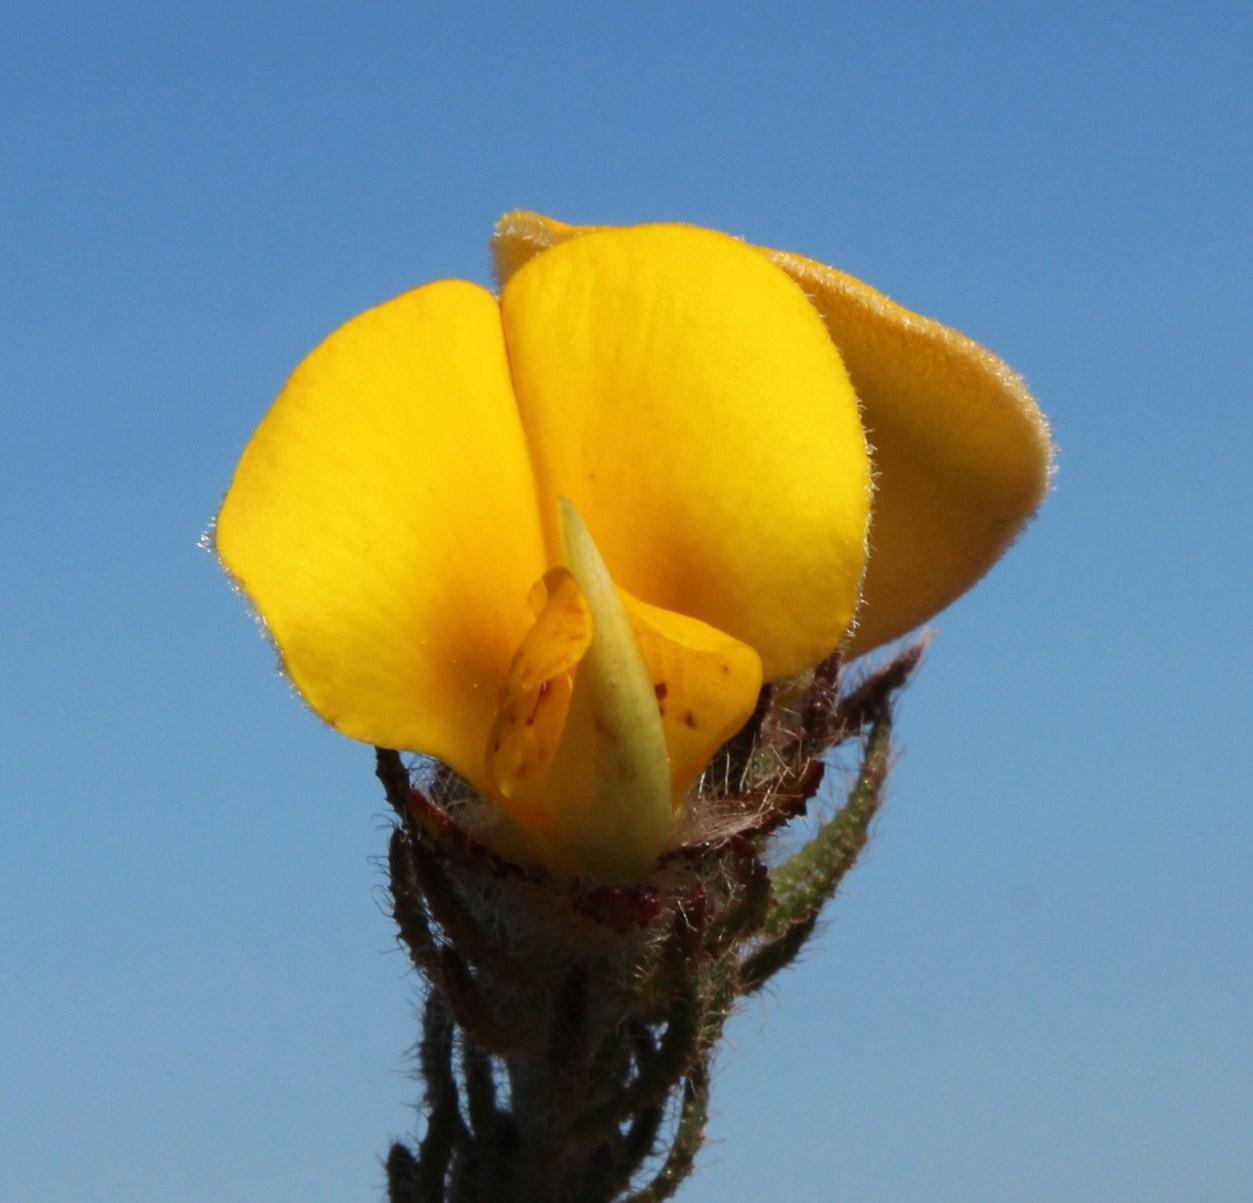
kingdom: Plantae
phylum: Tracheophyta
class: Magnoliopsida
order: Fabales
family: Fabaceae
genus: Aspalathus
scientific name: Aspalathus ciliaris
